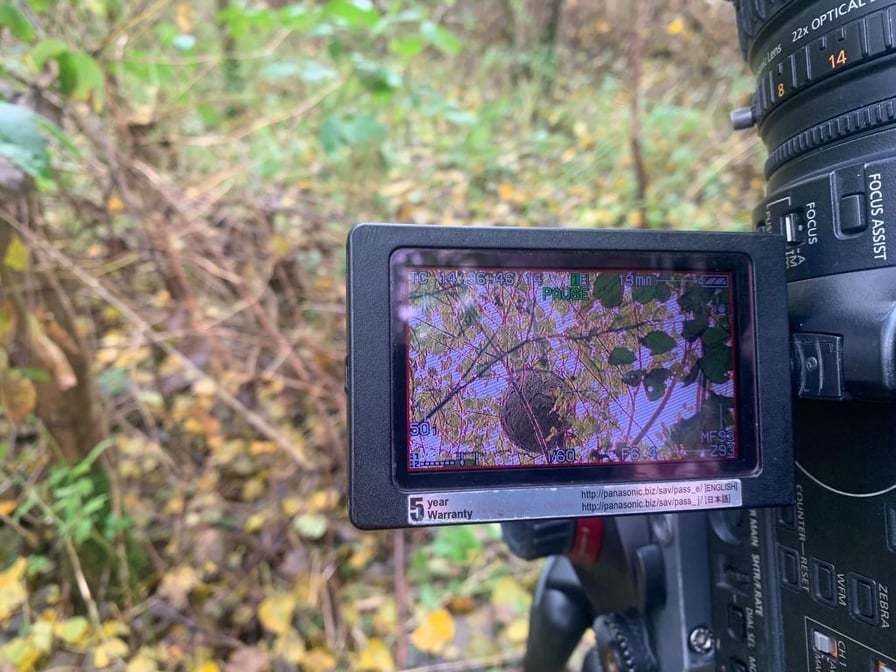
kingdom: Animalia
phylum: Arthropoda
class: Insecta
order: Hymenoptera
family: Vespidae
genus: Vespa
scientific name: Vespa velutina
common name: Asian hornet
